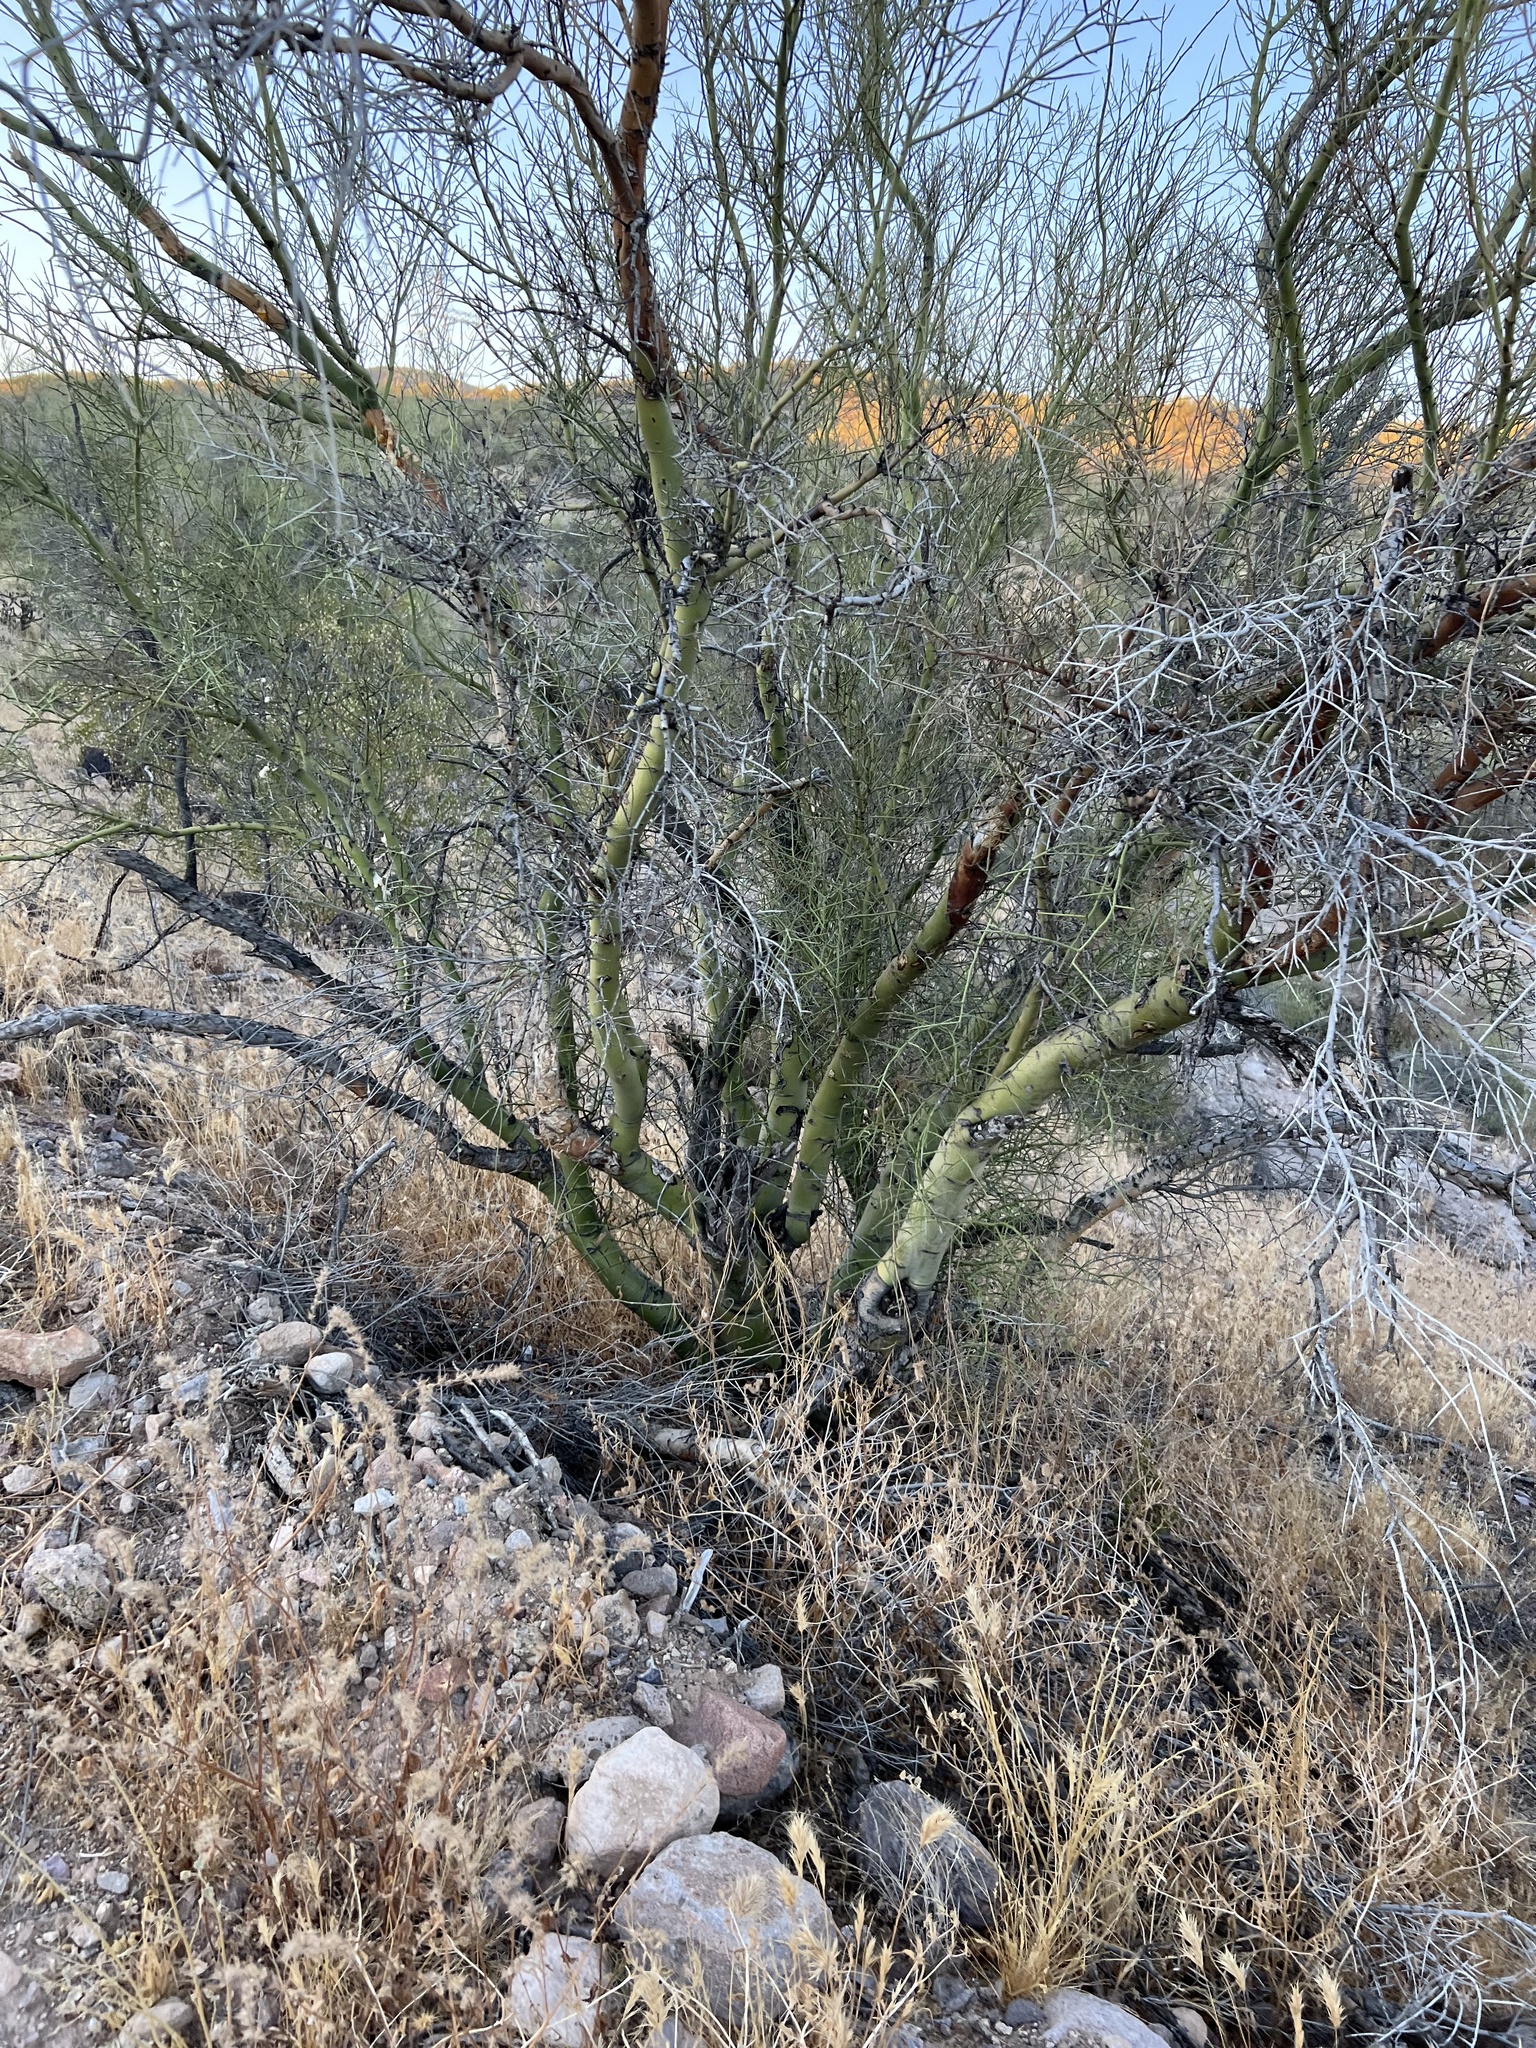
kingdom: Plantae
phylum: Tracheophyta
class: Magnoliopsida
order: Fabales
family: Fabaceae
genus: Parkinsonia
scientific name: Parkinsonia microphylla
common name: Yellow paloverde
